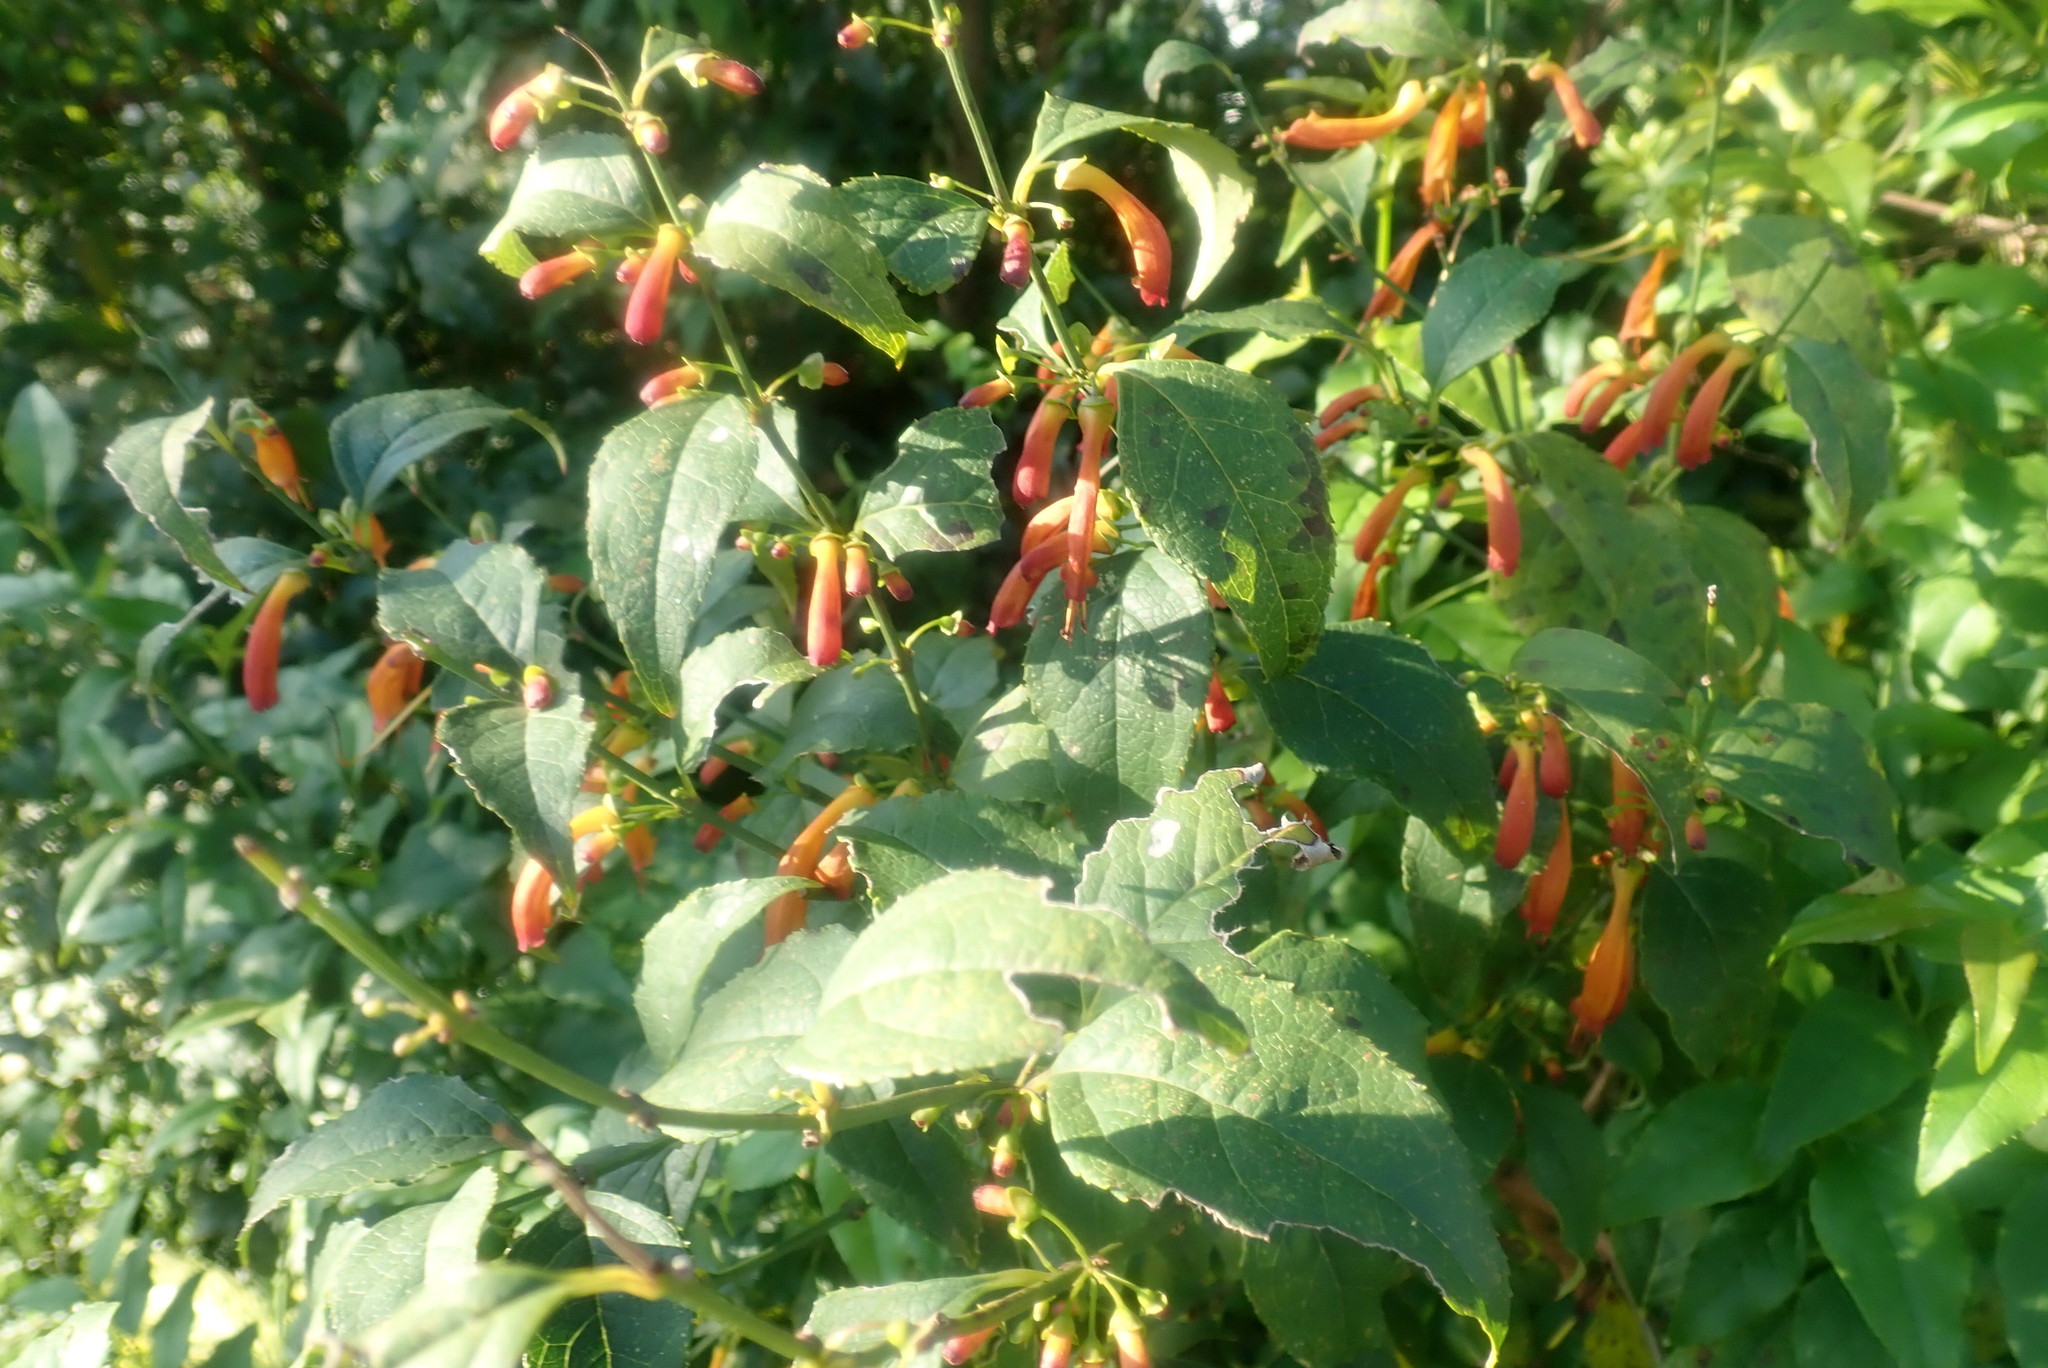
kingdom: Plantae
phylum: Tracheophyta
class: Magnoliopsida
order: Lamiales
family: Stilbaceae
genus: Halleria
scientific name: Halleria lucida
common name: Tree fuschia
